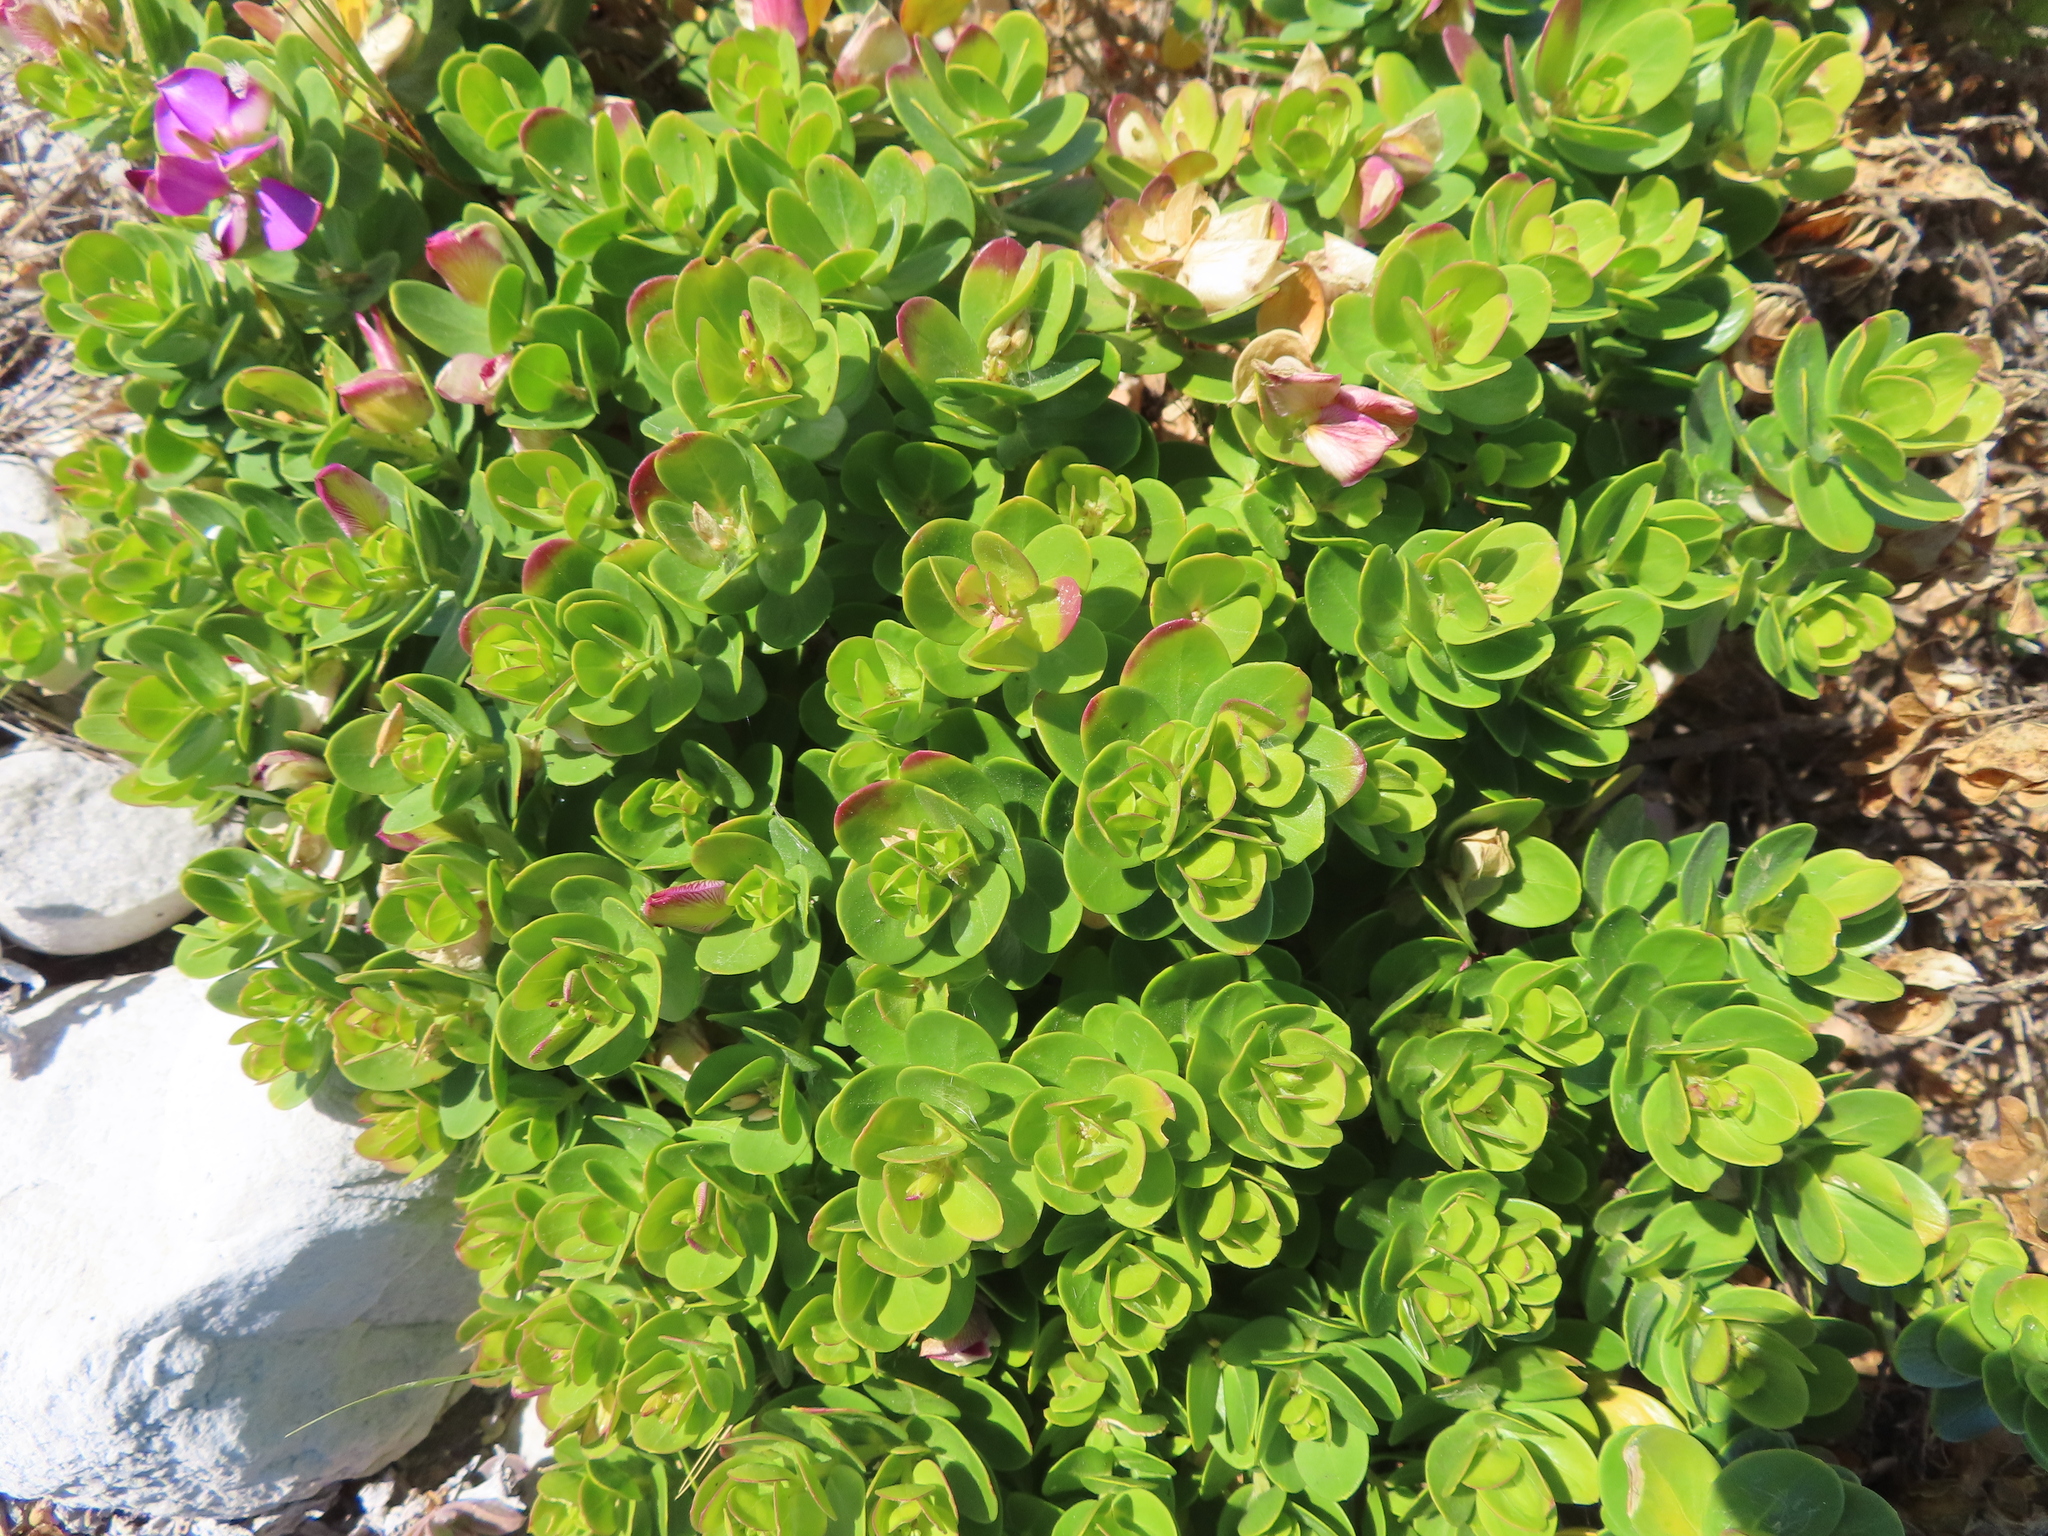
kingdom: Plantae
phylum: Tracheophyta
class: Magnoliopsida
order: Fabales
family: Polygalaceae
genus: Polygala
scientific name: Polygala myrtifolia
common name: Myrtle-leaf milkwort
